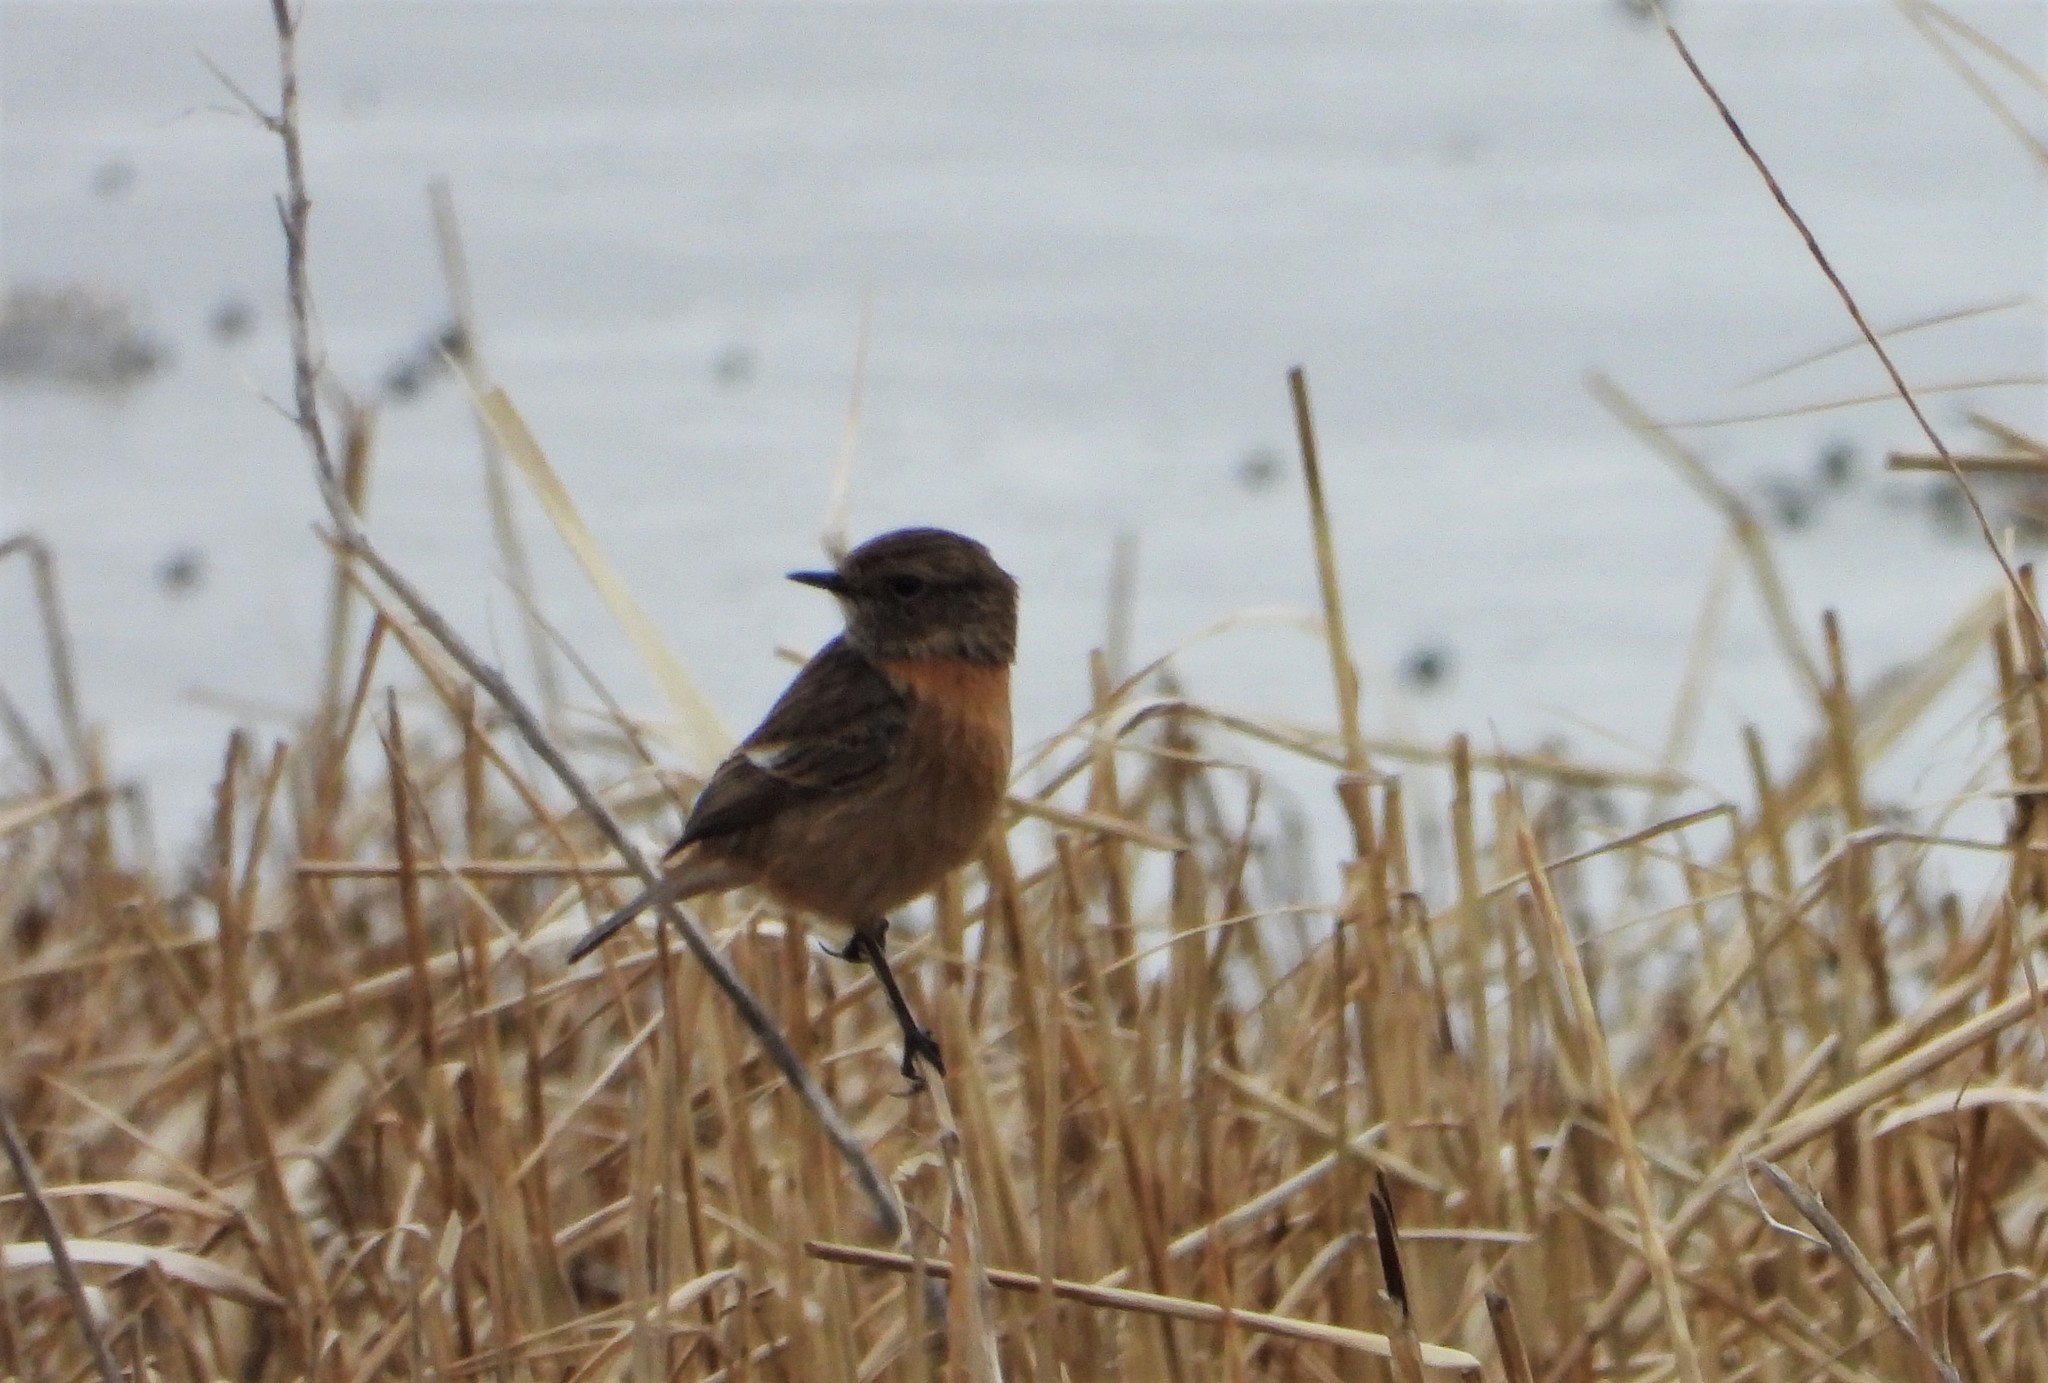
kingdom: Animalia
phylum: Chordata
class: Aves
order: Passeriformes
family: Muscicapidae
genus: Saxicola
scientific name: Saxicola rubicola
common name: European stonechat
